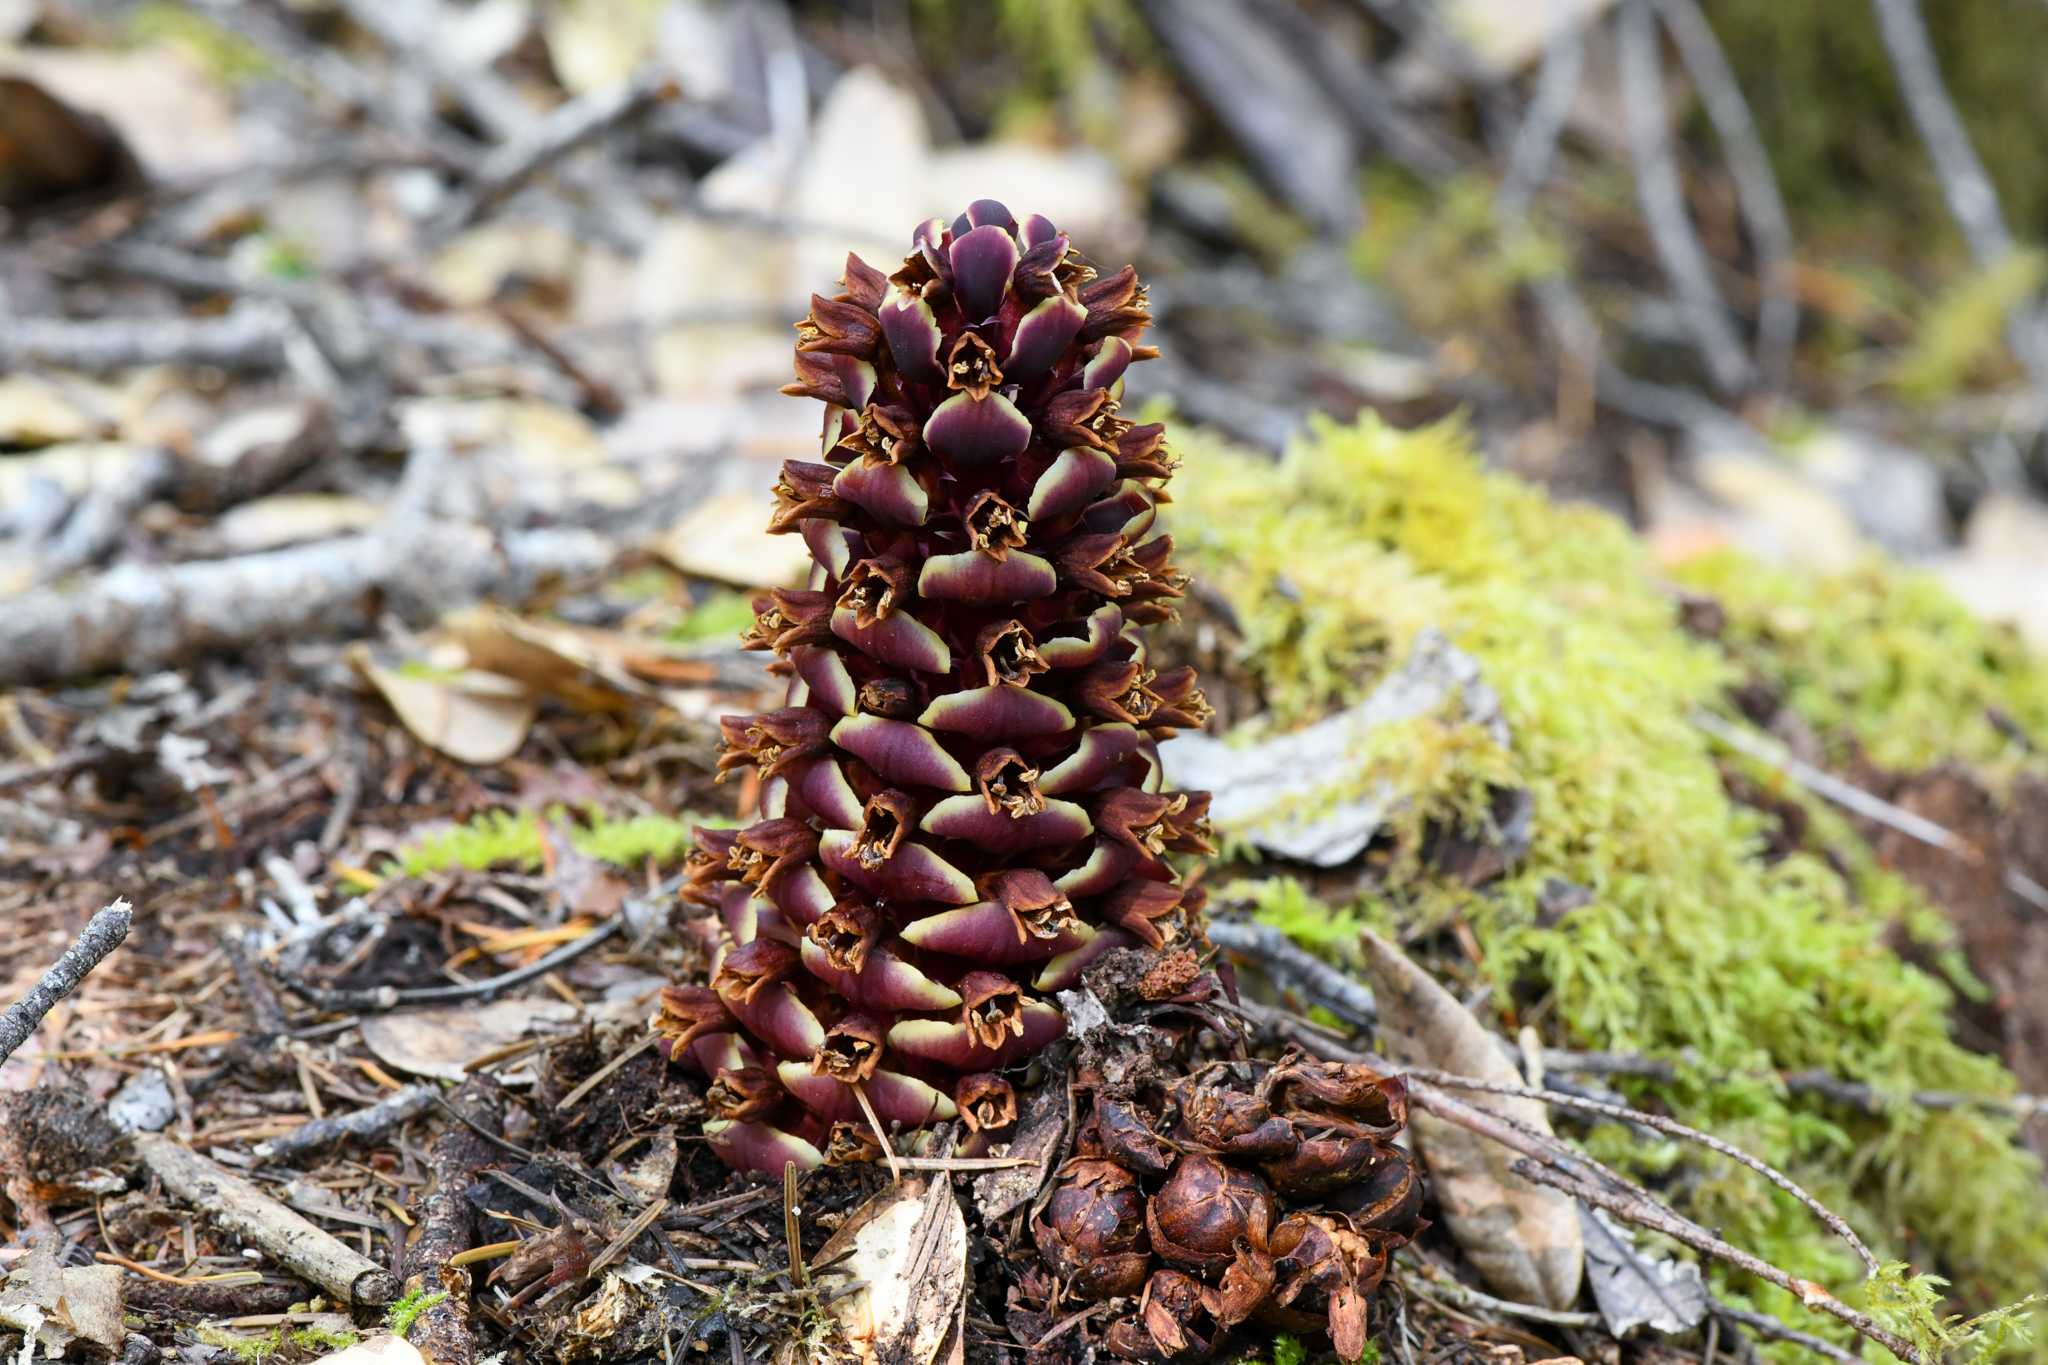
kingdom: Plantae
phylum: Tracheophyta
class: Magnoliopsida
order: Lamiales
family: Orobanchaceae
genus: Kopsiopsis
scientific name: Kopsiopsis strobilacea
